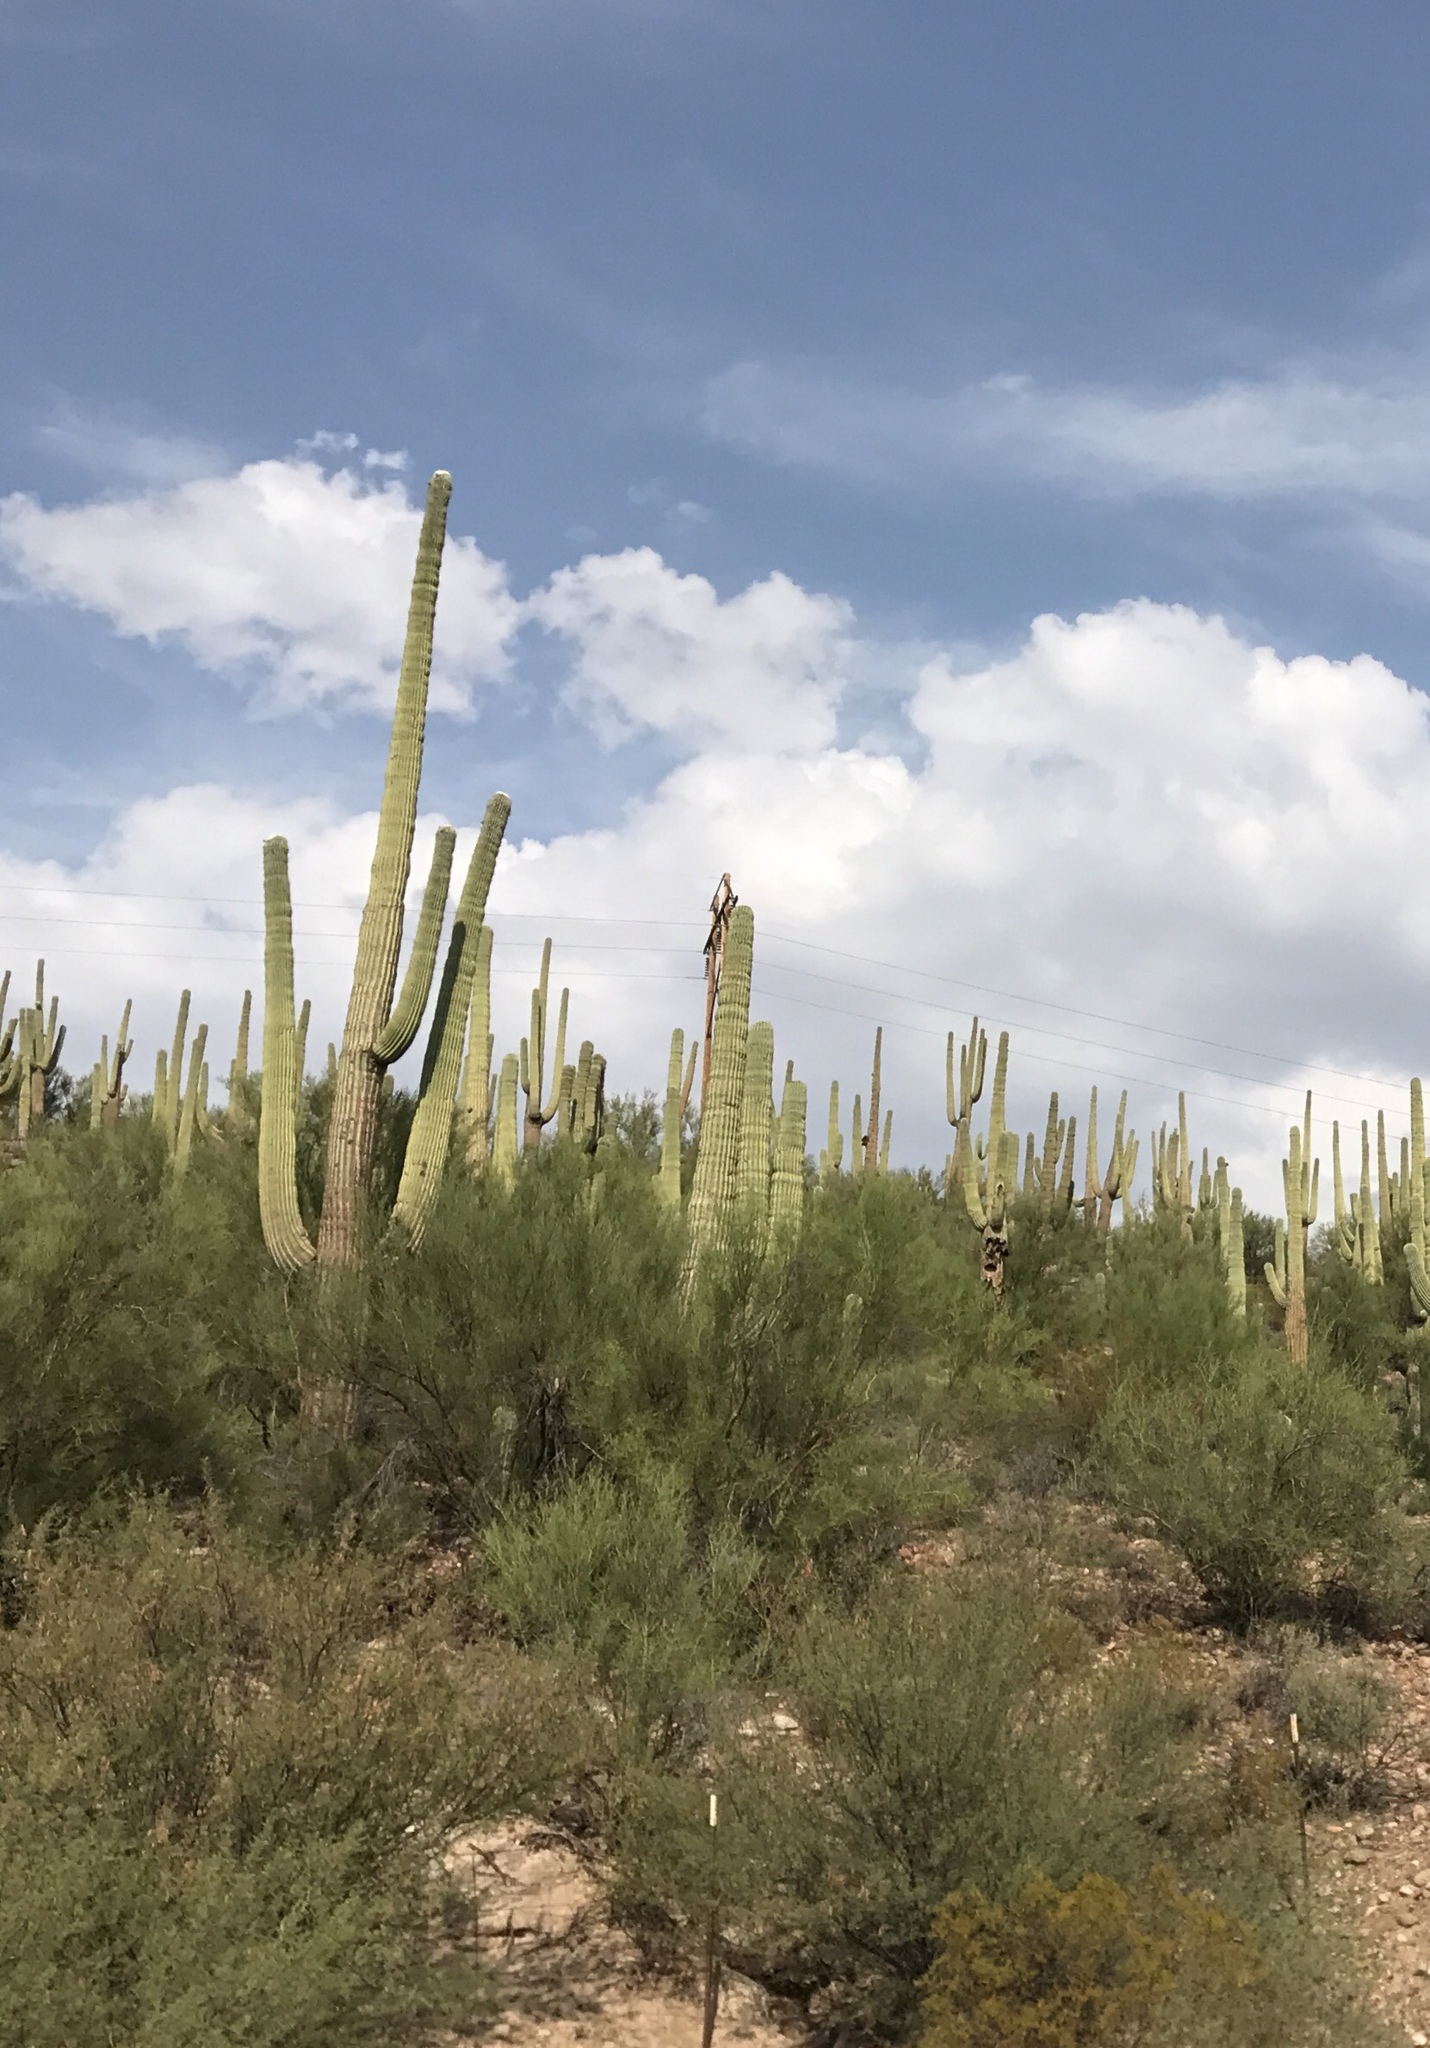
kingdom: Plantae
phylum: Tracheophyta
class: Magnoliopsida
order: Caryophyllales
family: Cactaceae
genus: Carnegiea
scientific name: Carnegiea gigantea
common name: Saguaro
